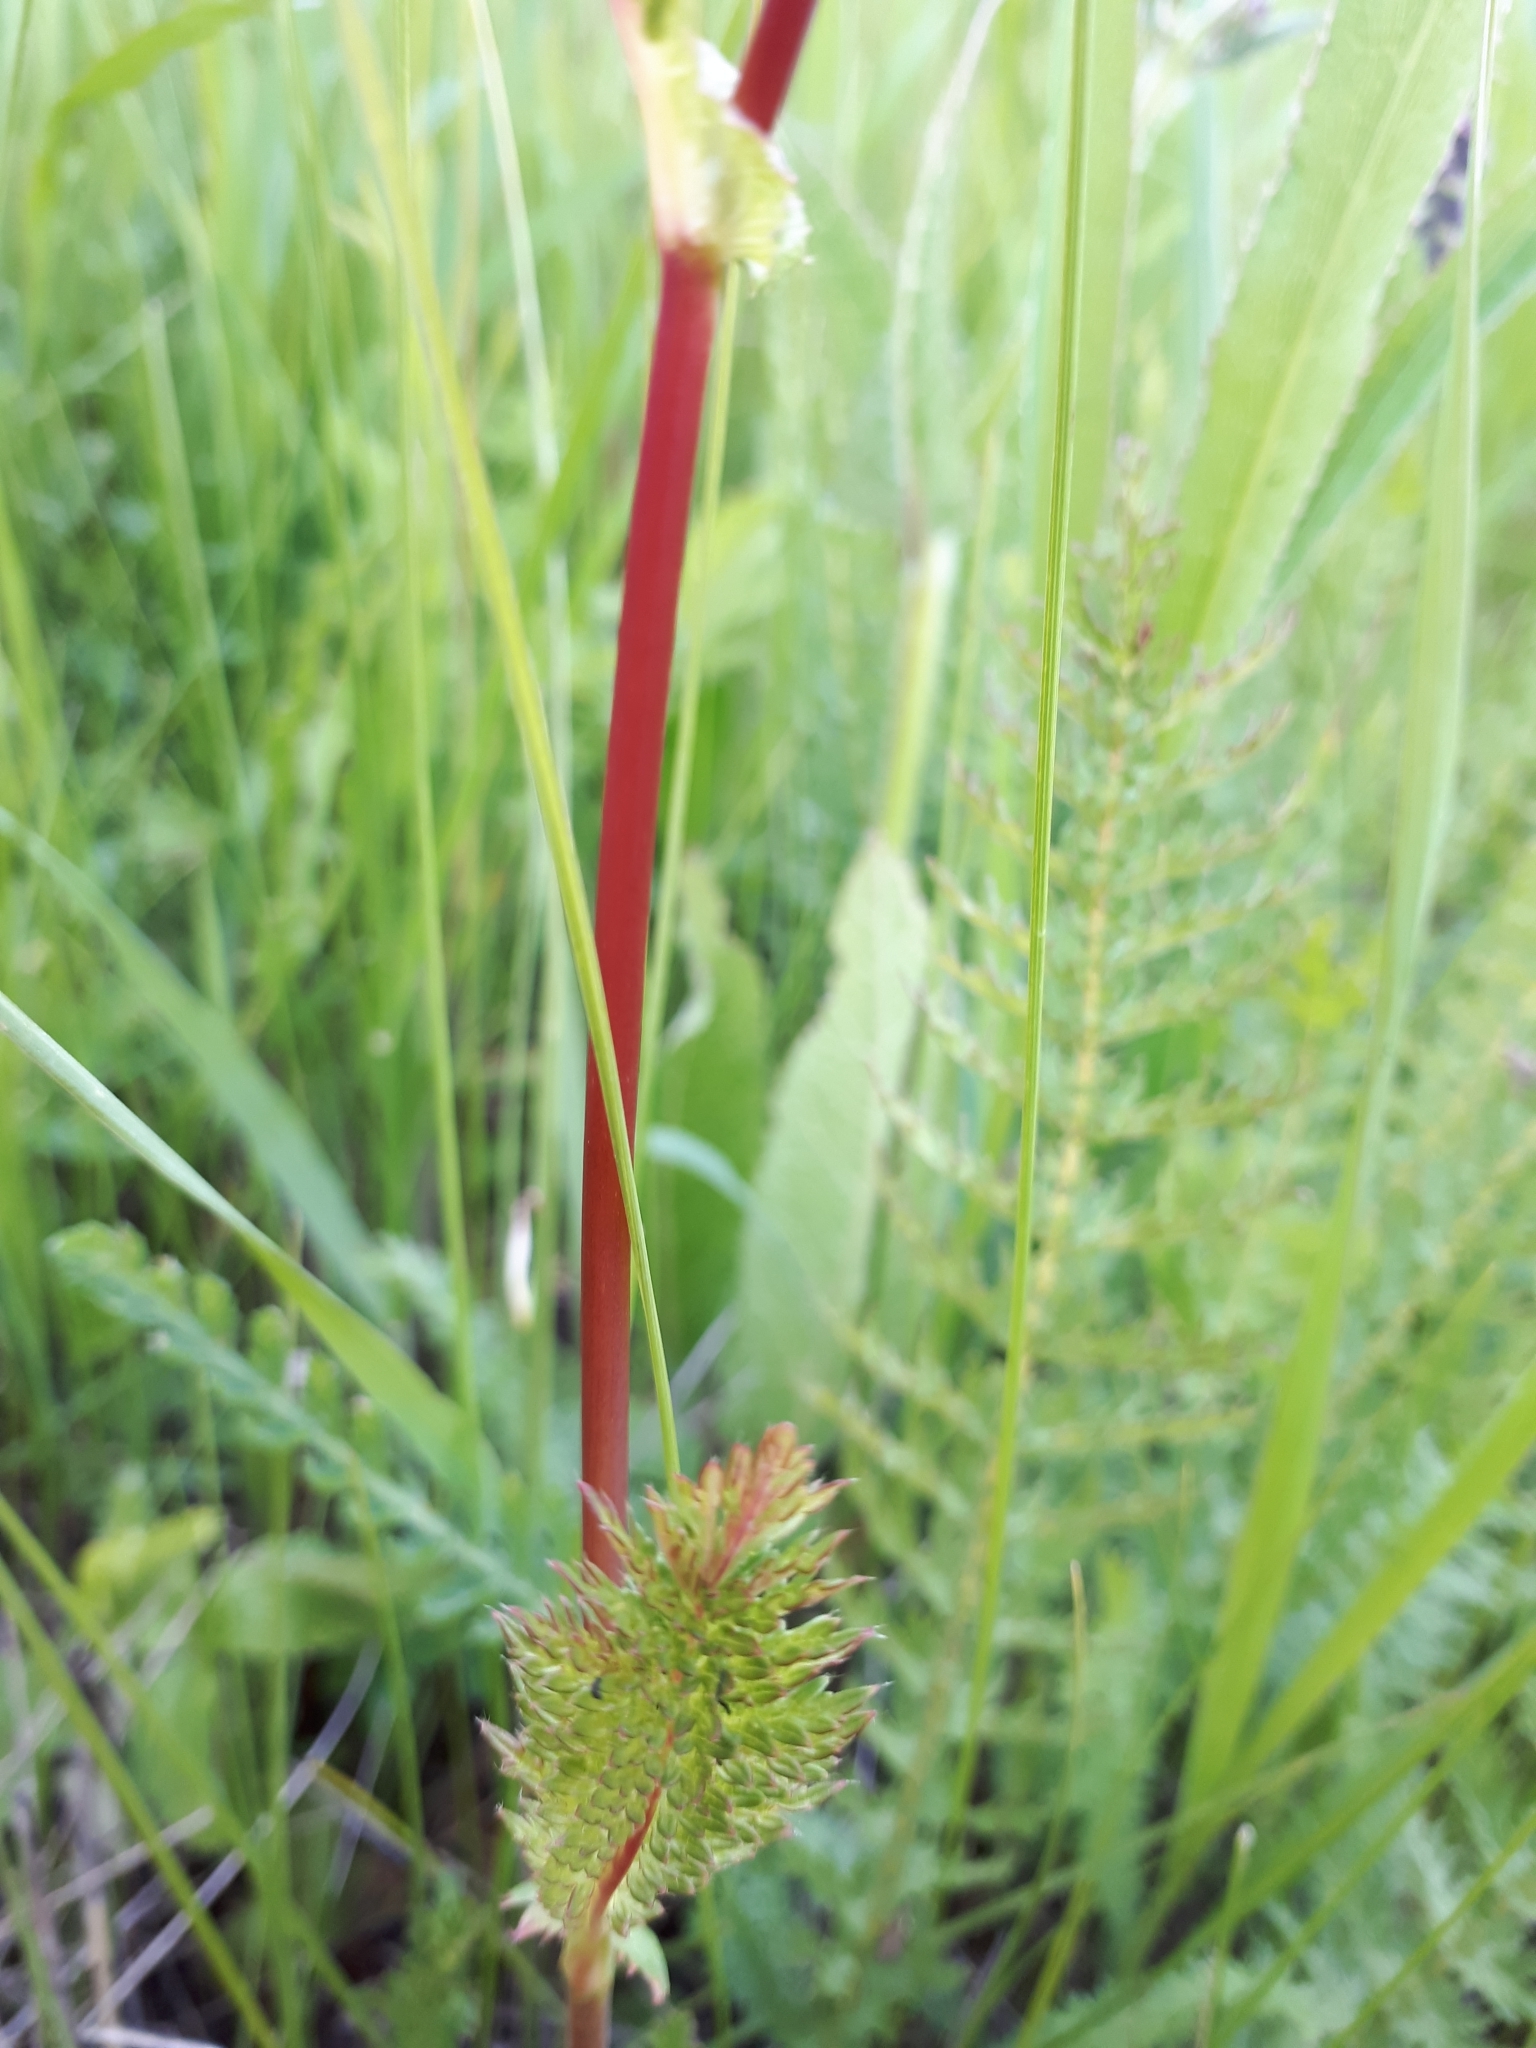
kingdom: Plantae
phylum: Tracheophyta
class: Magnoliopsida
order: Rosales
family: Rosaceae
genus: Filipendula
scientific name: Filipendula vulgaris
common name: Dropwort
